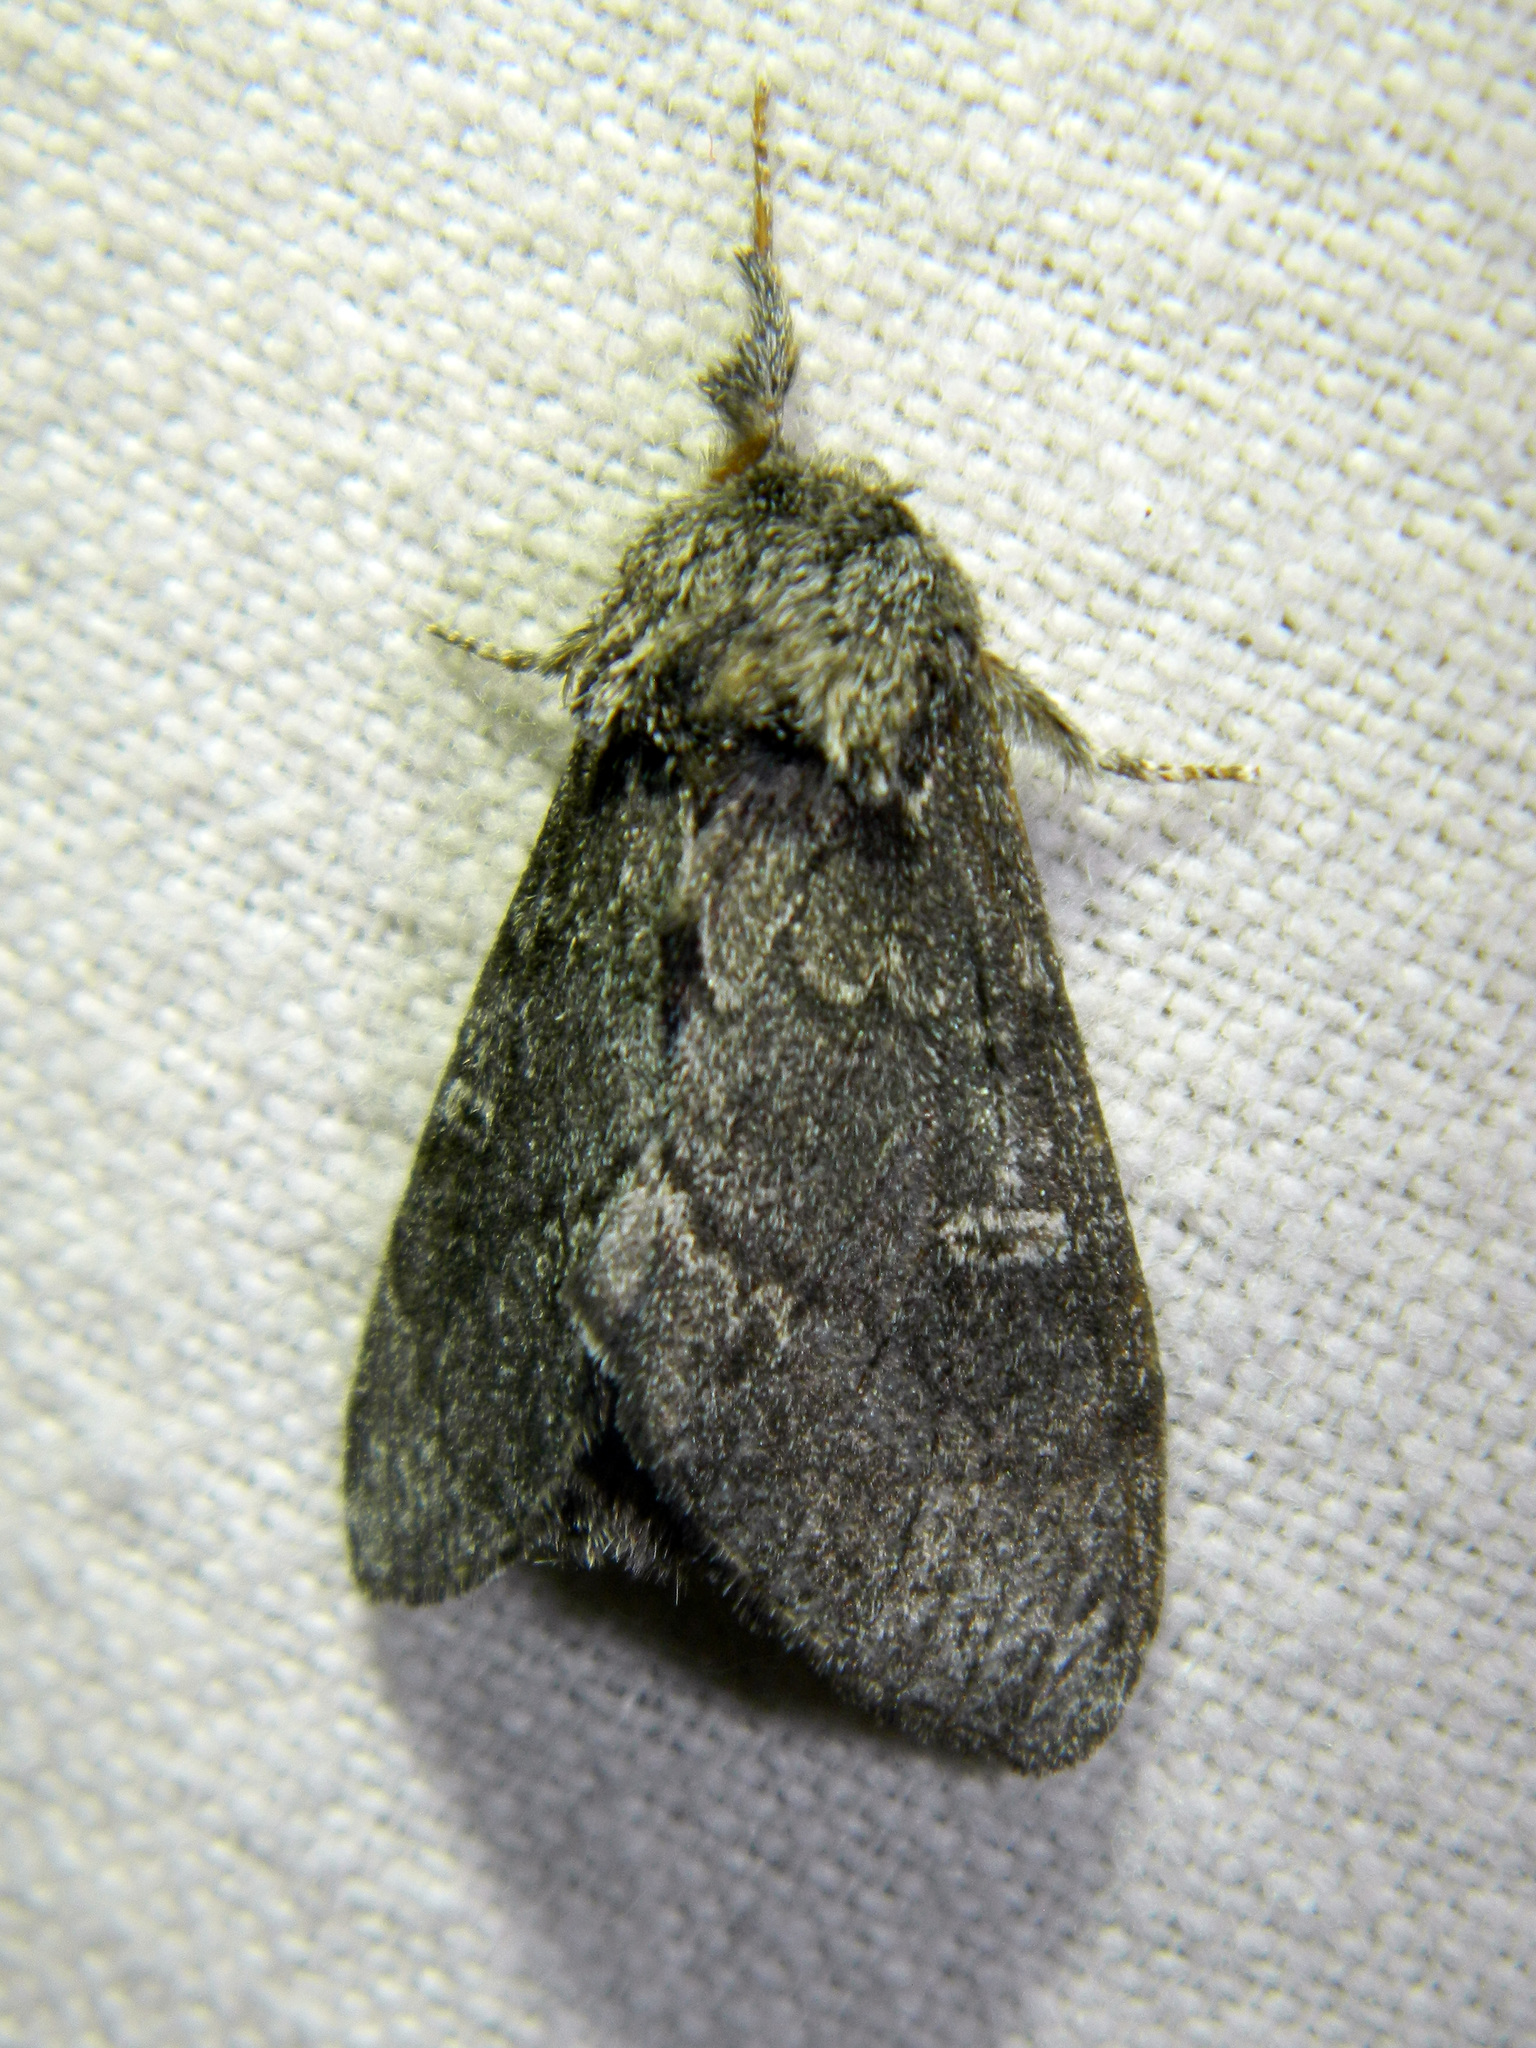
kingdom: Animalia
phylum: Arthropoda
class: Insecta
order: Lepidoptera
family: Notodontidae
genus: Notodonta
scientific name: Notodonta torva
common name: Large dark prominent
